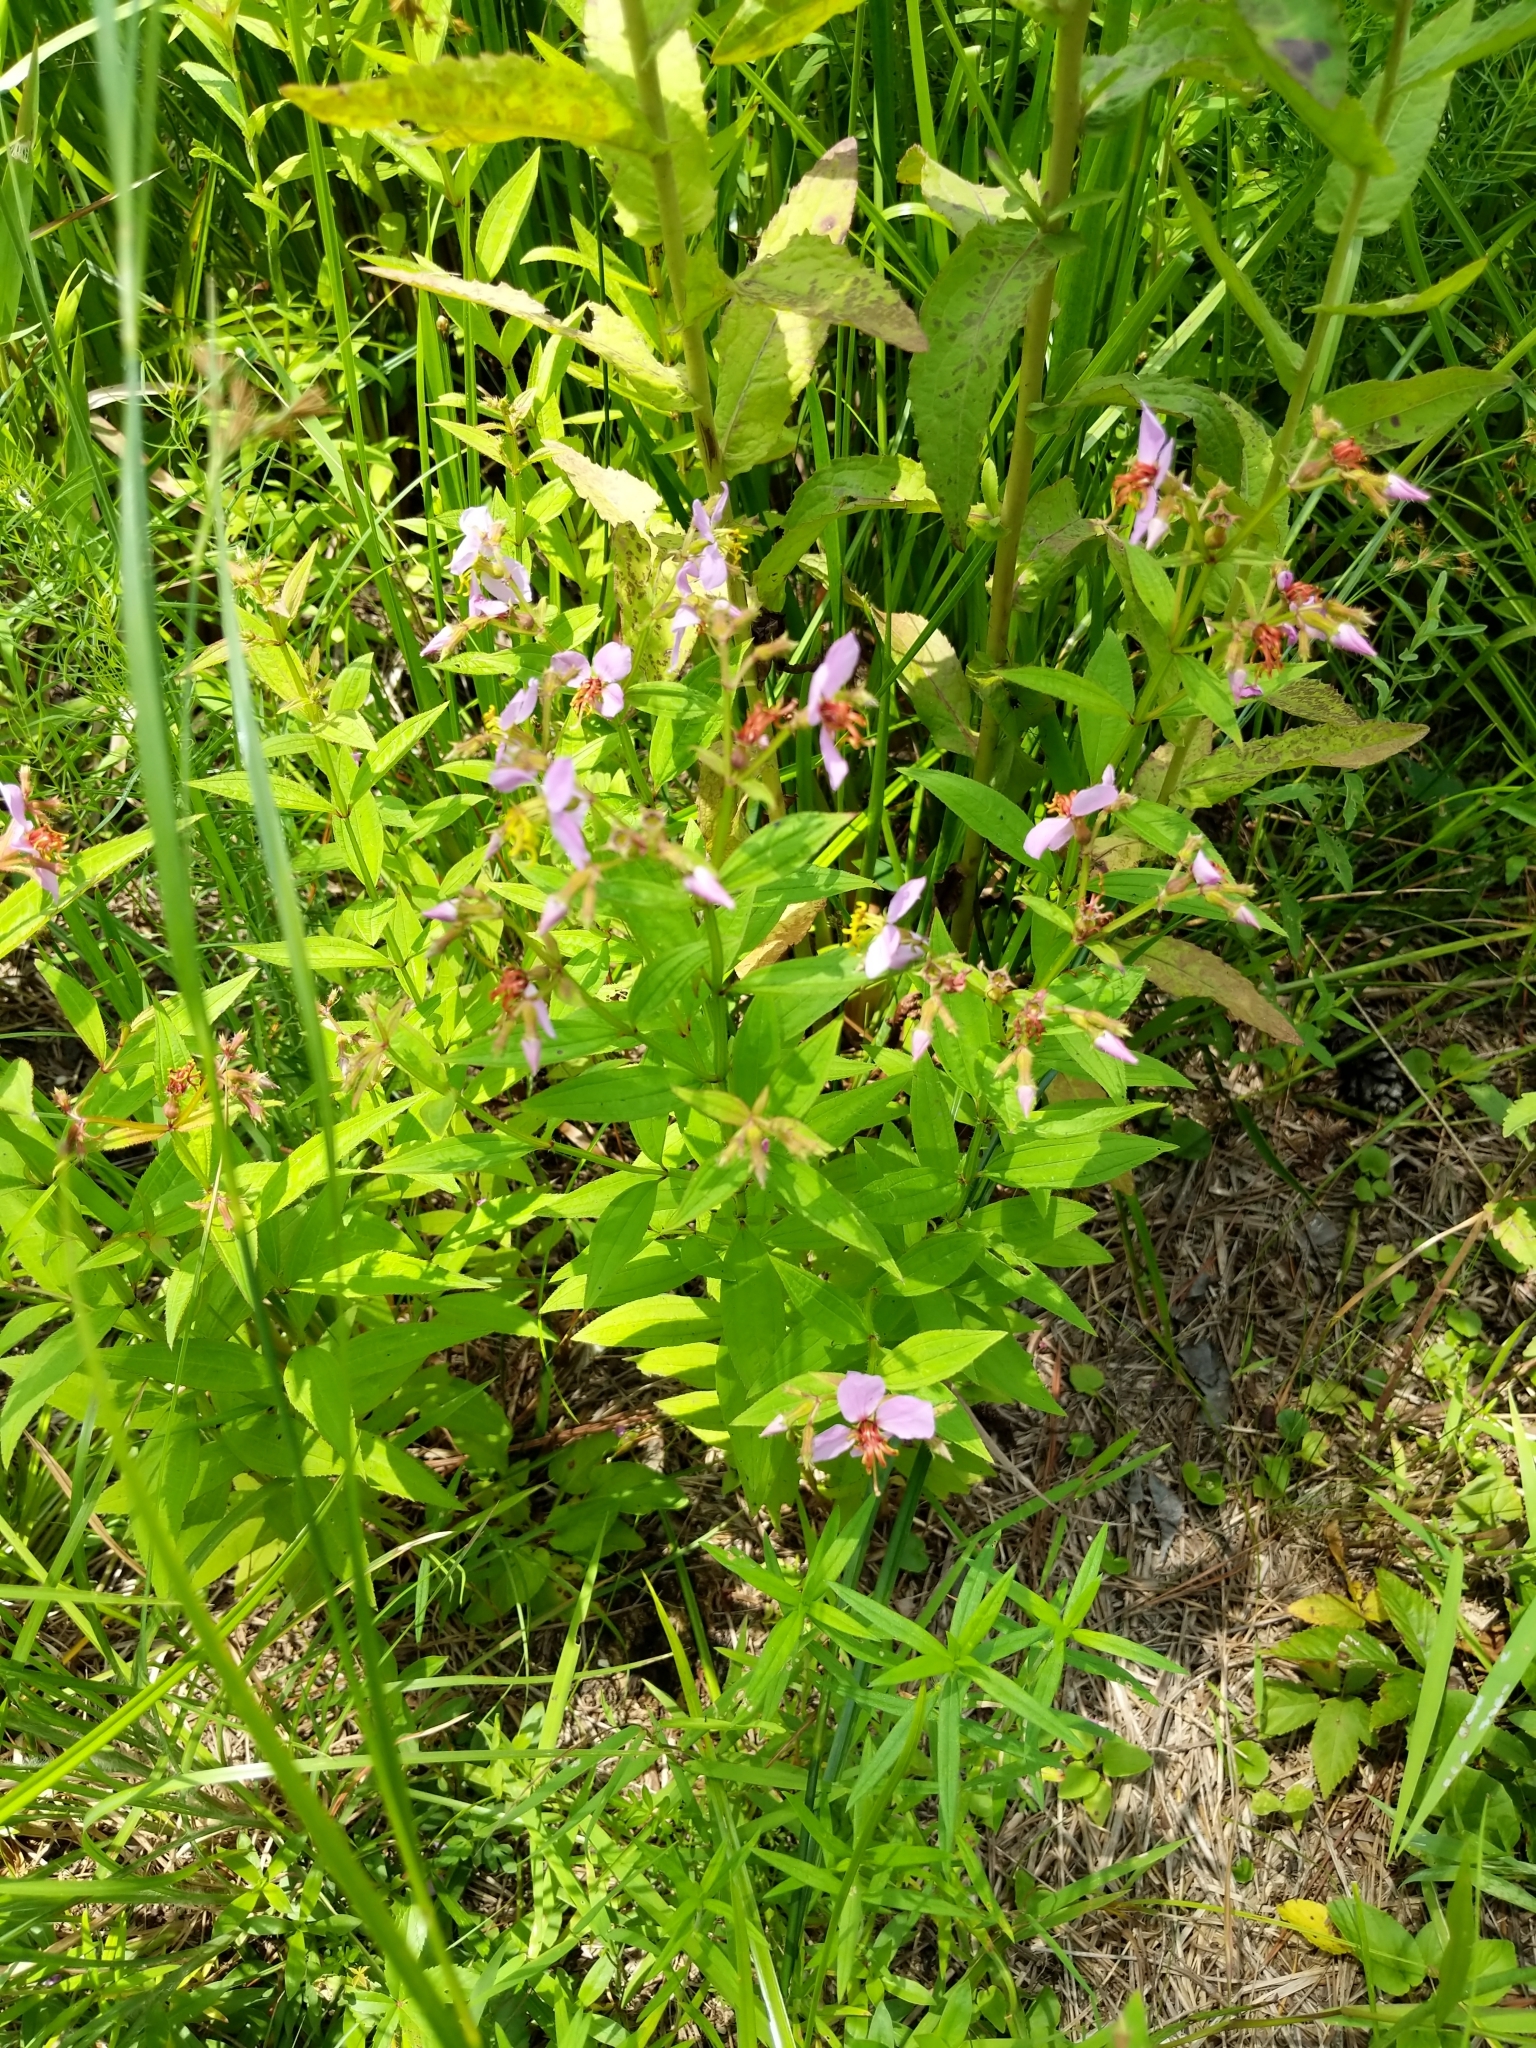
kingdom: Plantae
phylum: Tracheophyta
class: Magnoliopsida
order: Myrtales
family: Melastomataceae
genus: Rhexia
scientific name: Rhexia virginica
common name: Common meadow beauty
